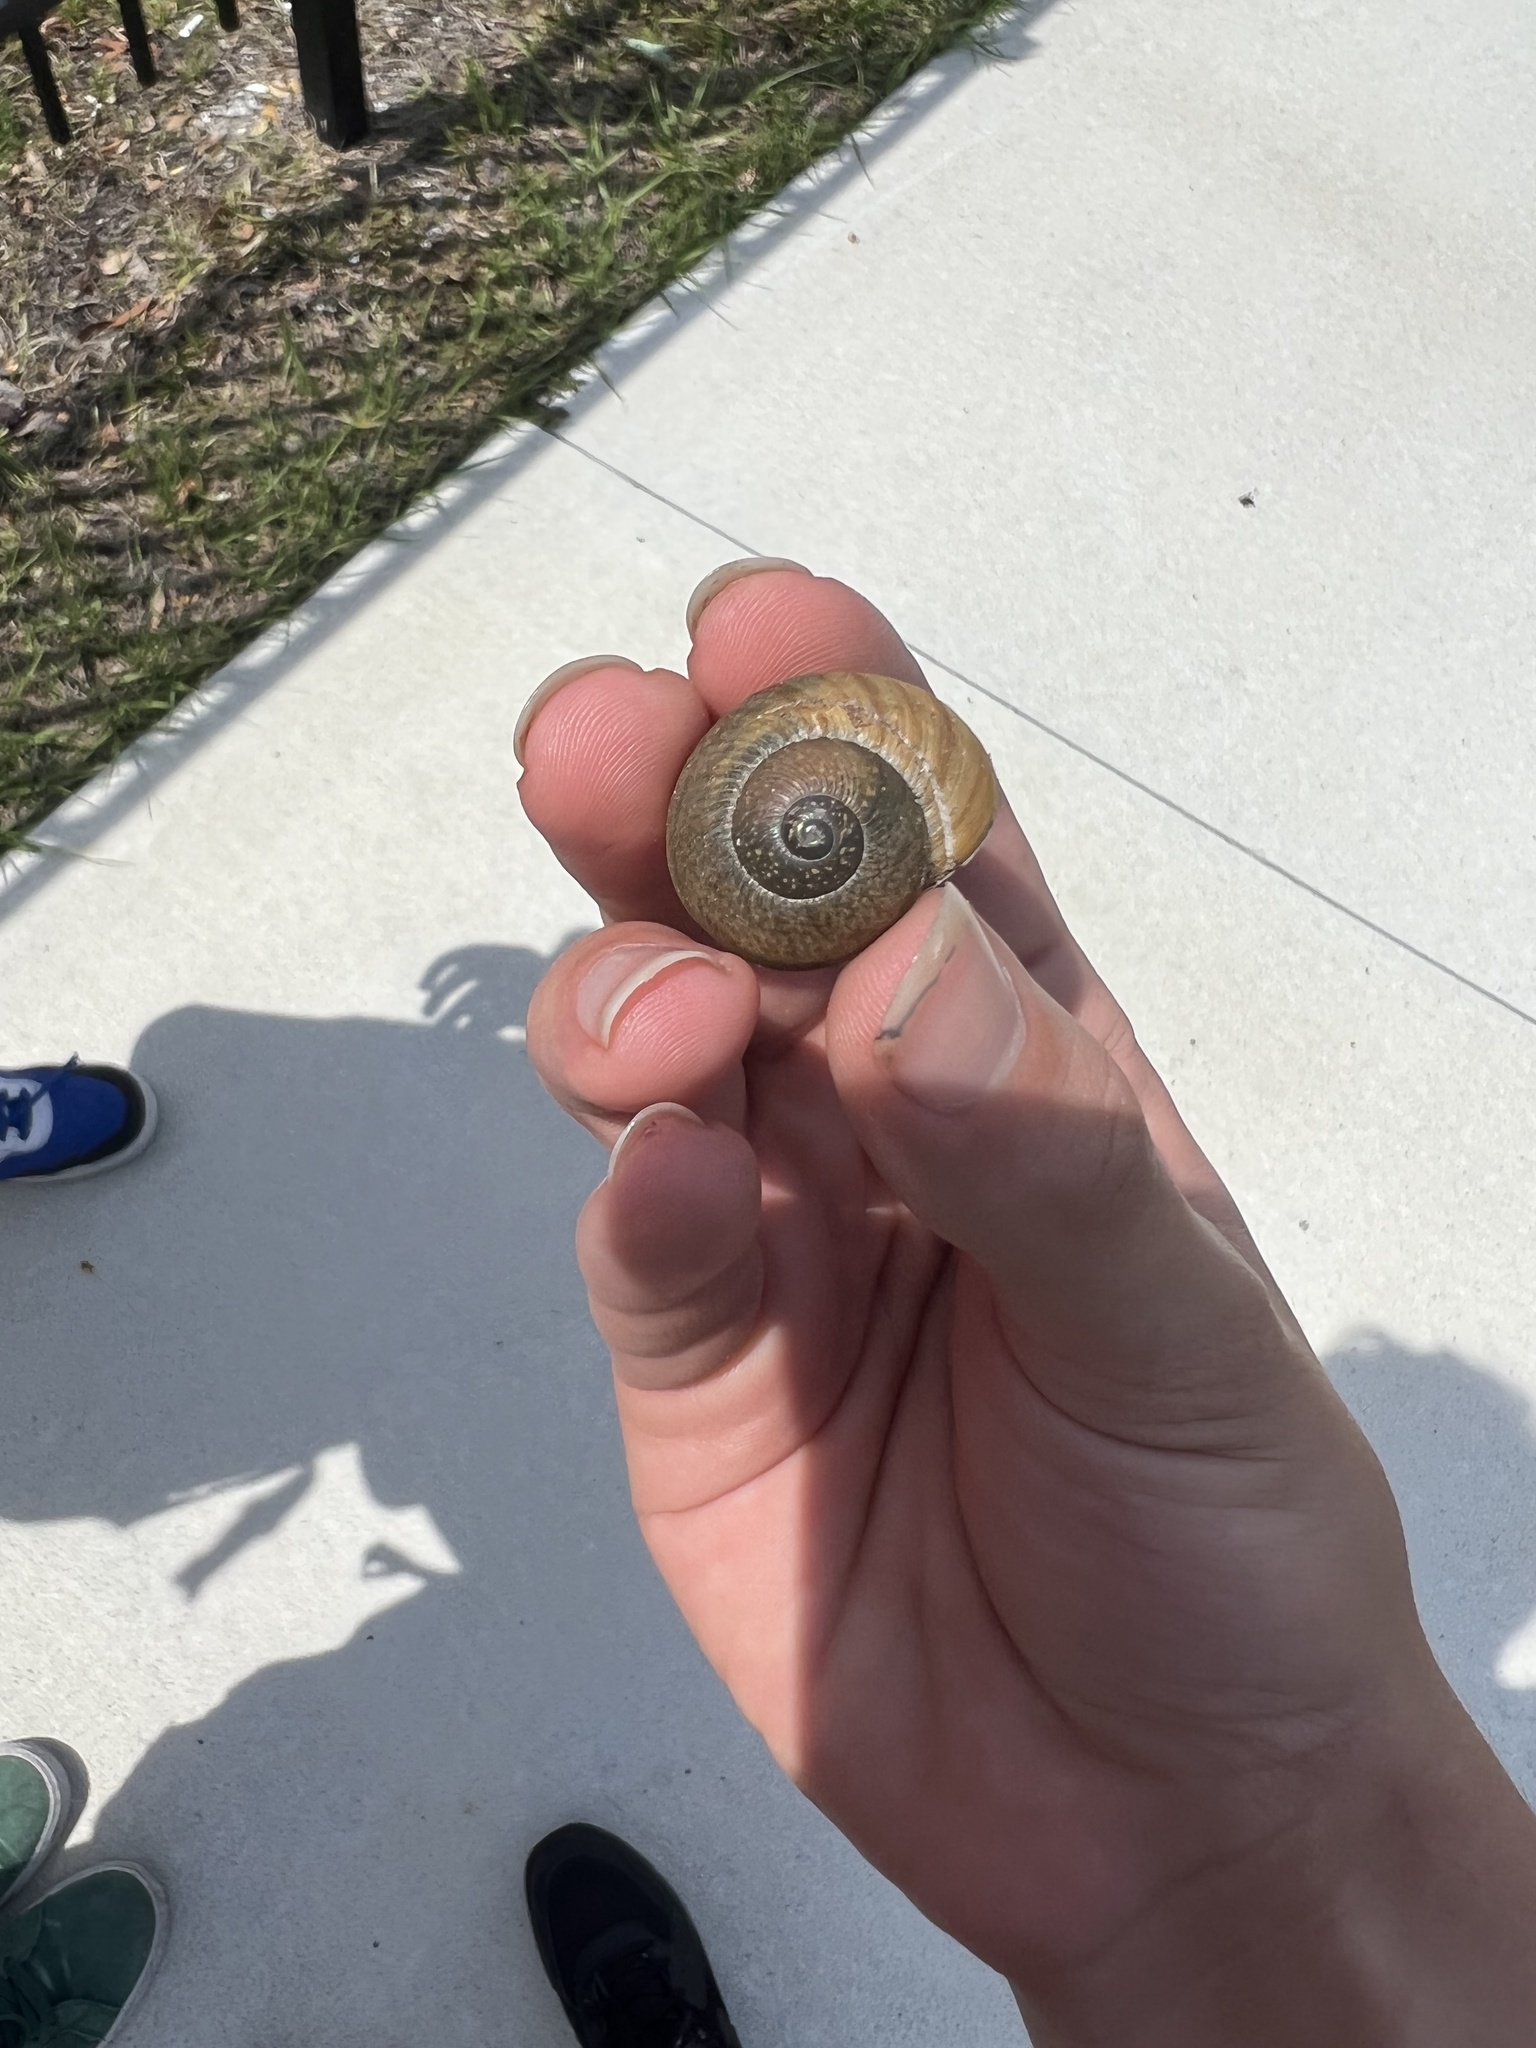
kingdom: Animalia
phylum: Mollusca
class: Gastropoda
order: Stylommatophora
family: Zachrysiidae
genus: Zachrysia
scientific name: Zachrysia provisoria
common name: Garden zachrysia
